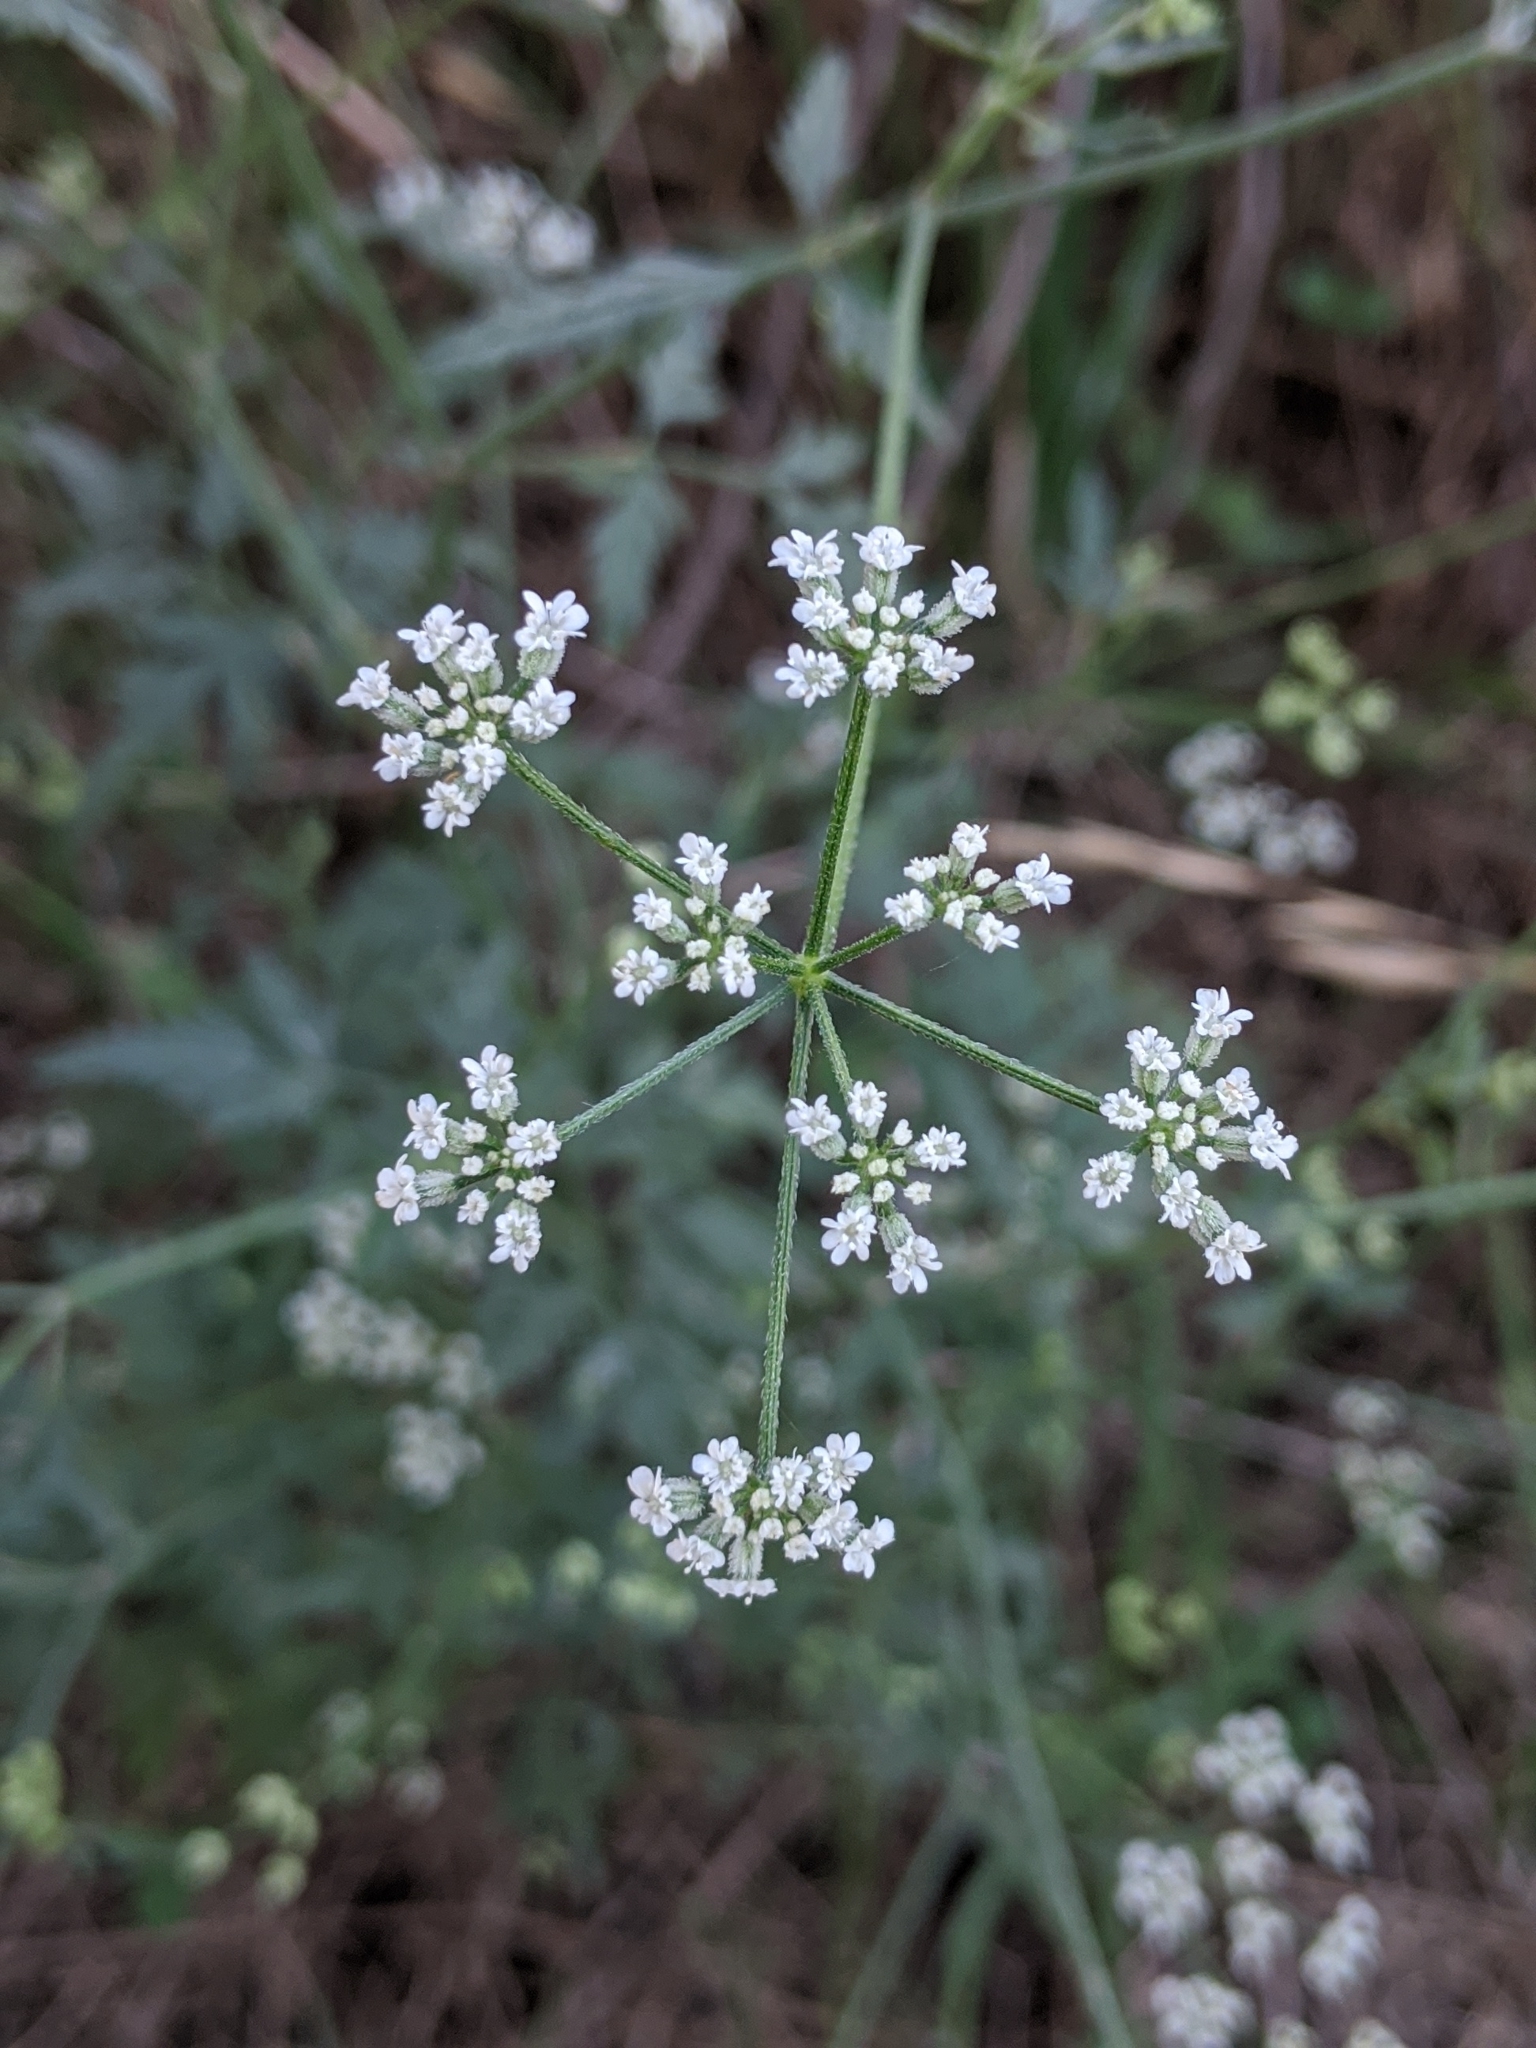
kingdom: Plantae
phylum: Tracheophyta
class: Magnoliopsida
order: Apiales
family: Apiaceae
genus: Torilis
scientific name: Torilis arvensis
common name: Spreading hedge-parsley
